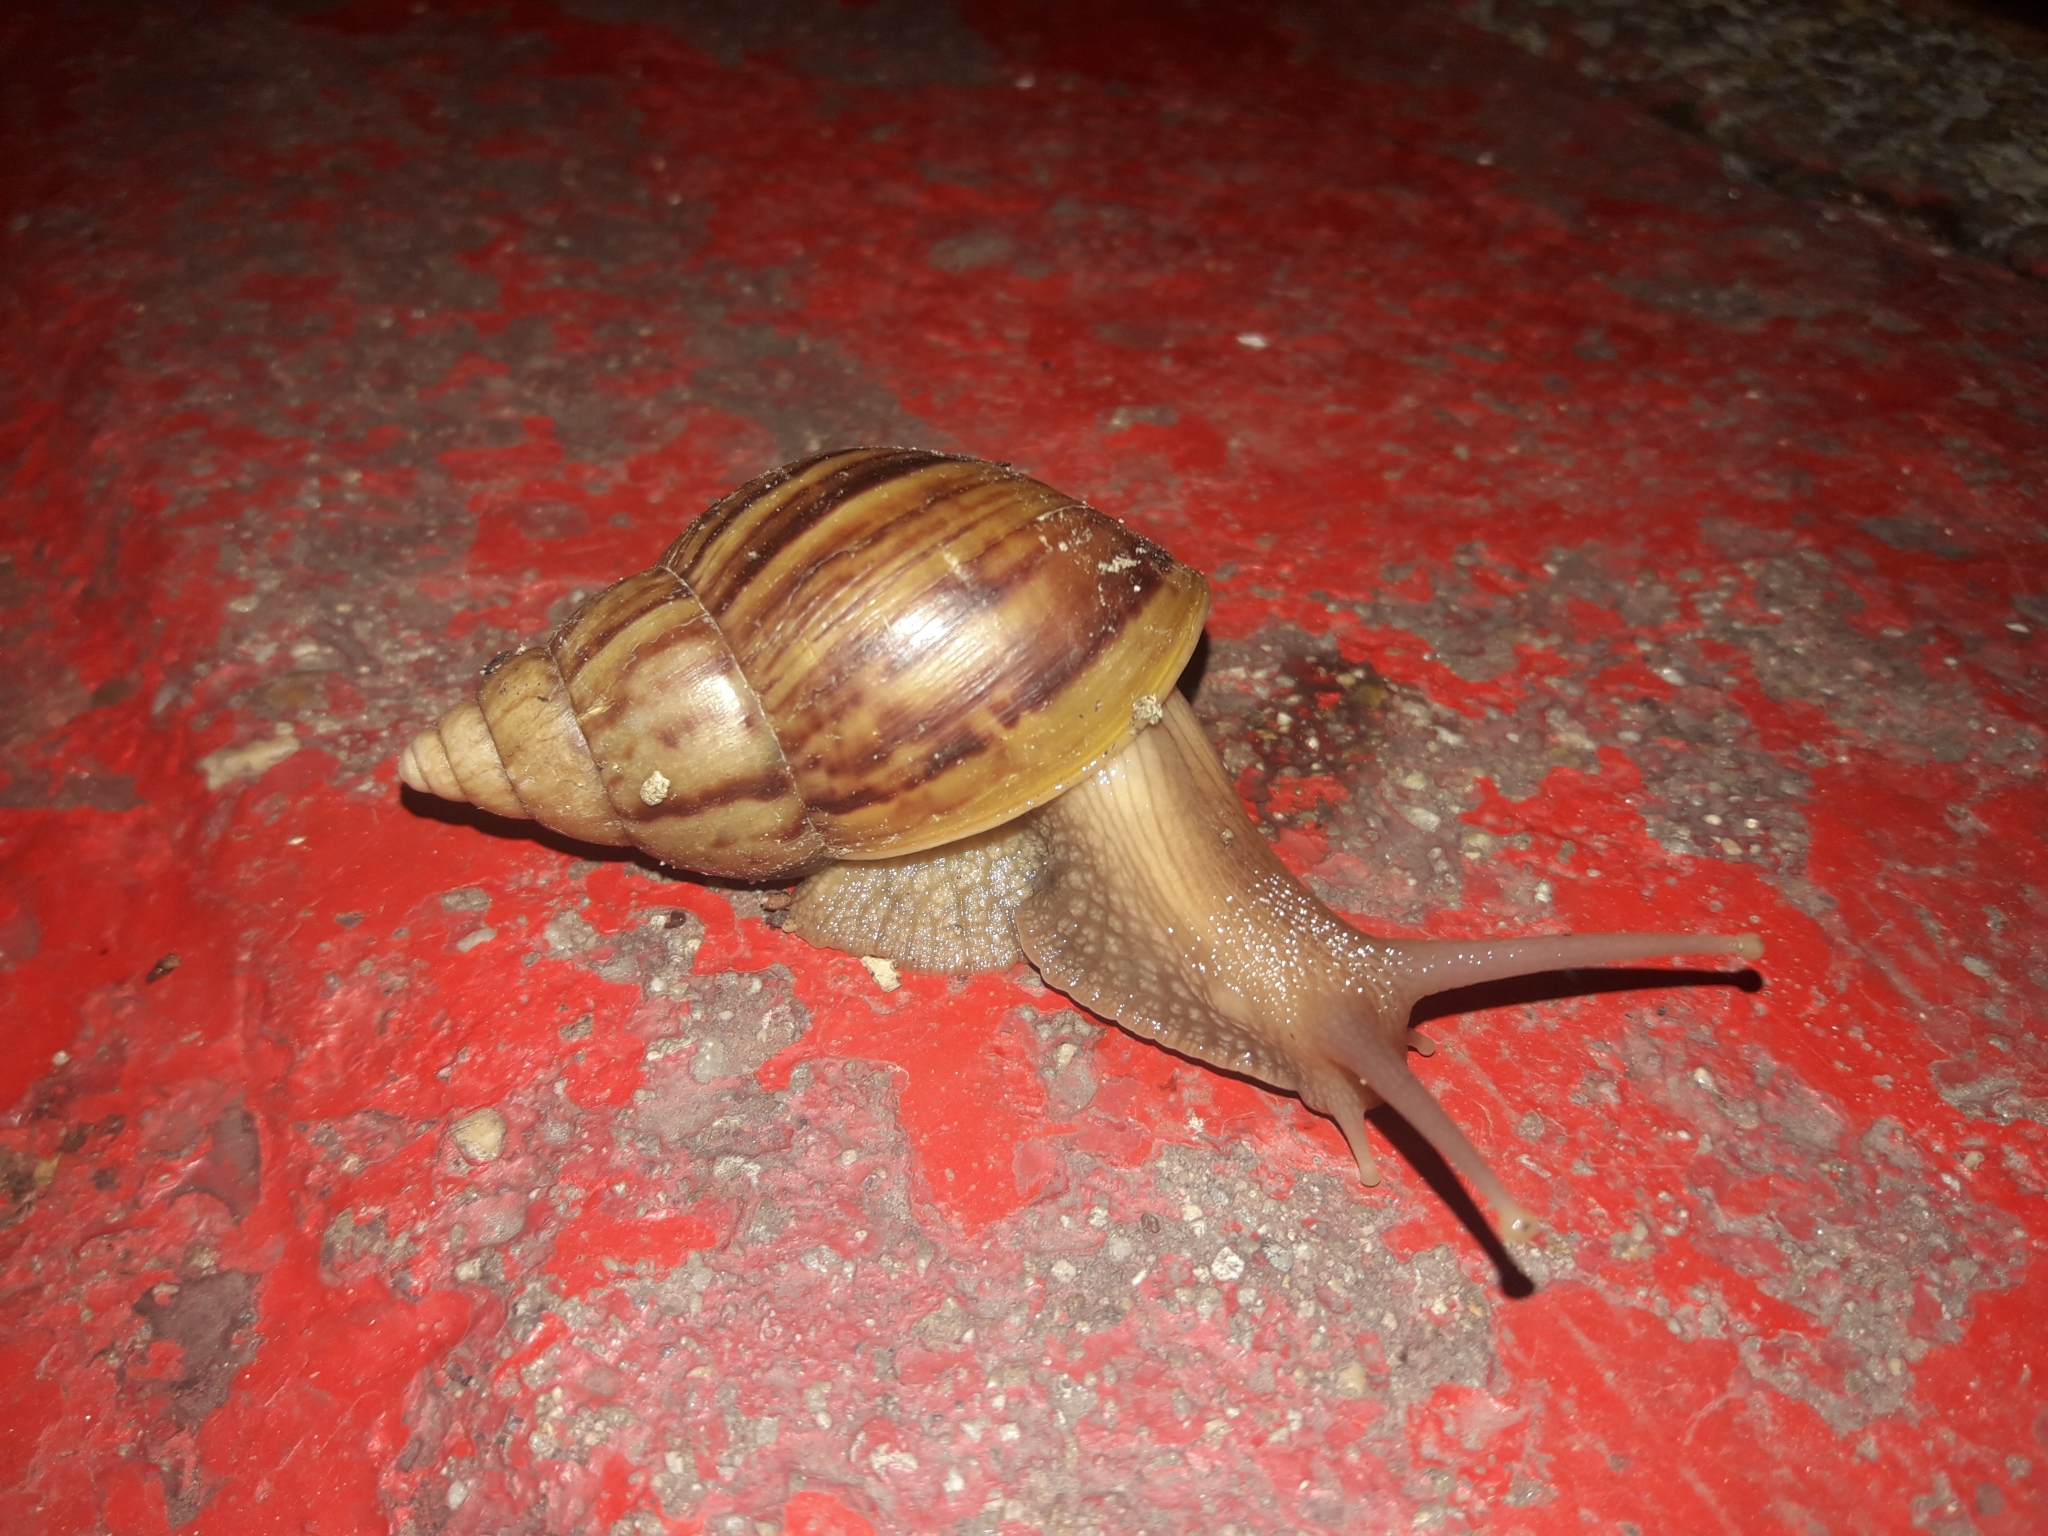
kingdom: Animalia
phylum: Mollusca
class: Gastropoda
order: Stylommatophora
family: Achatinidae
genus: Lissachatina
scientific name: Lissachatina fulica
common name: Giant african snail
